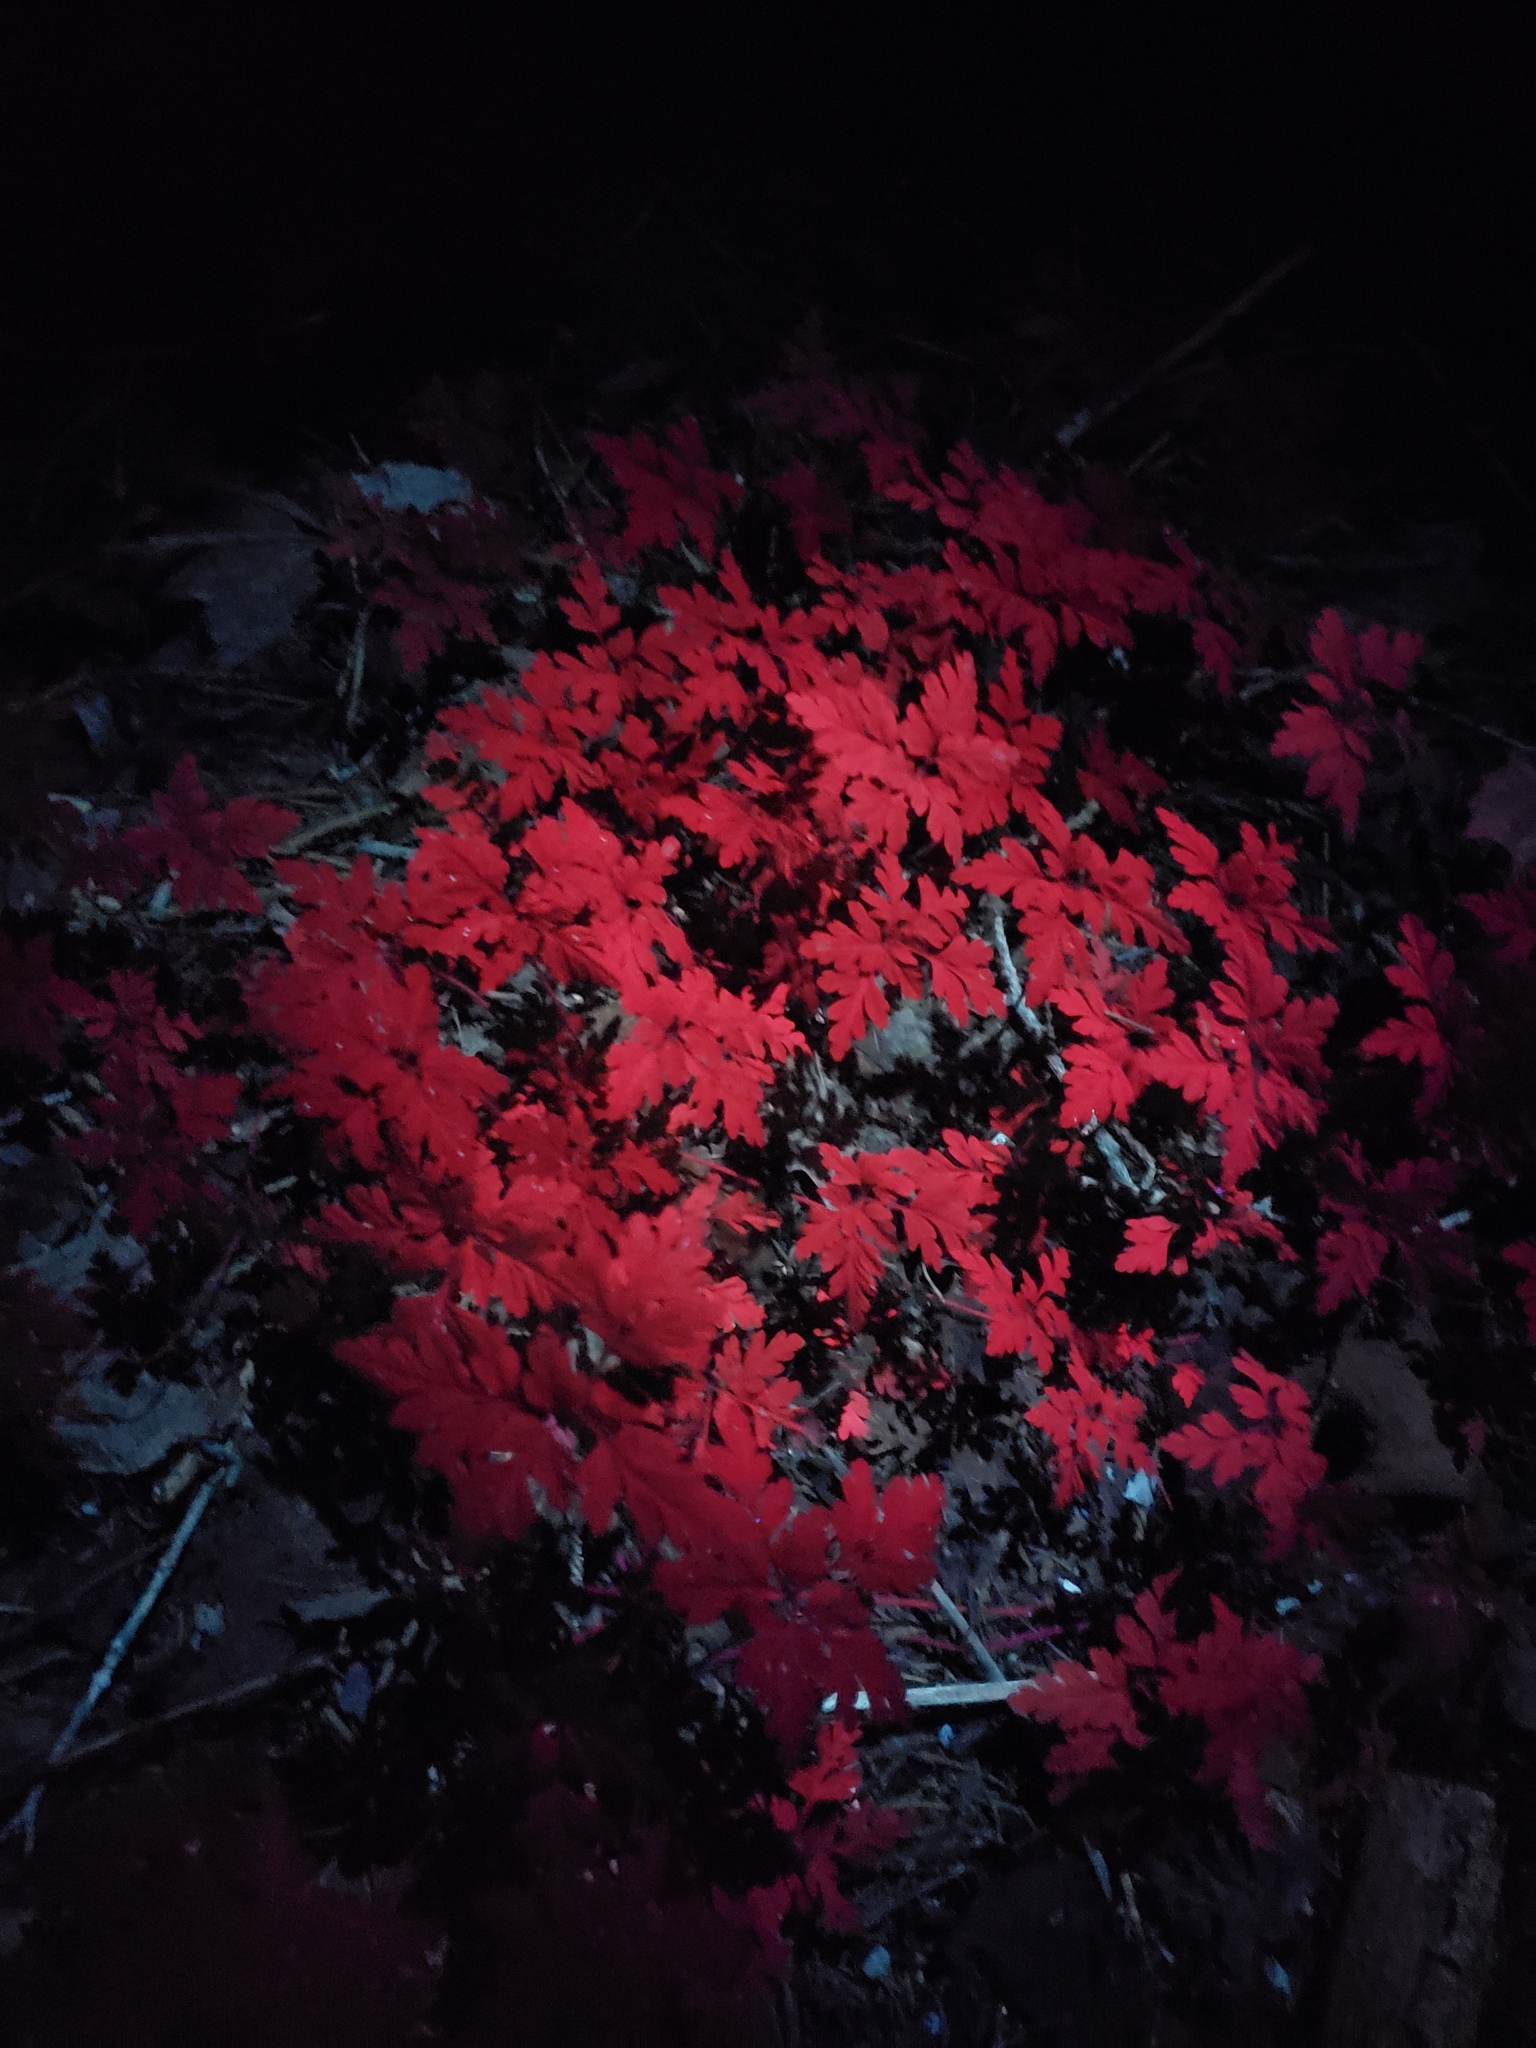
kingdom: Plantae
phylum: Tracheophyta
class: Magnoliopsida
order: Geraniales
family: Geraniaceae
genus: Geranium
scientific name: Geranium robertianum
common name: Herb-robert
